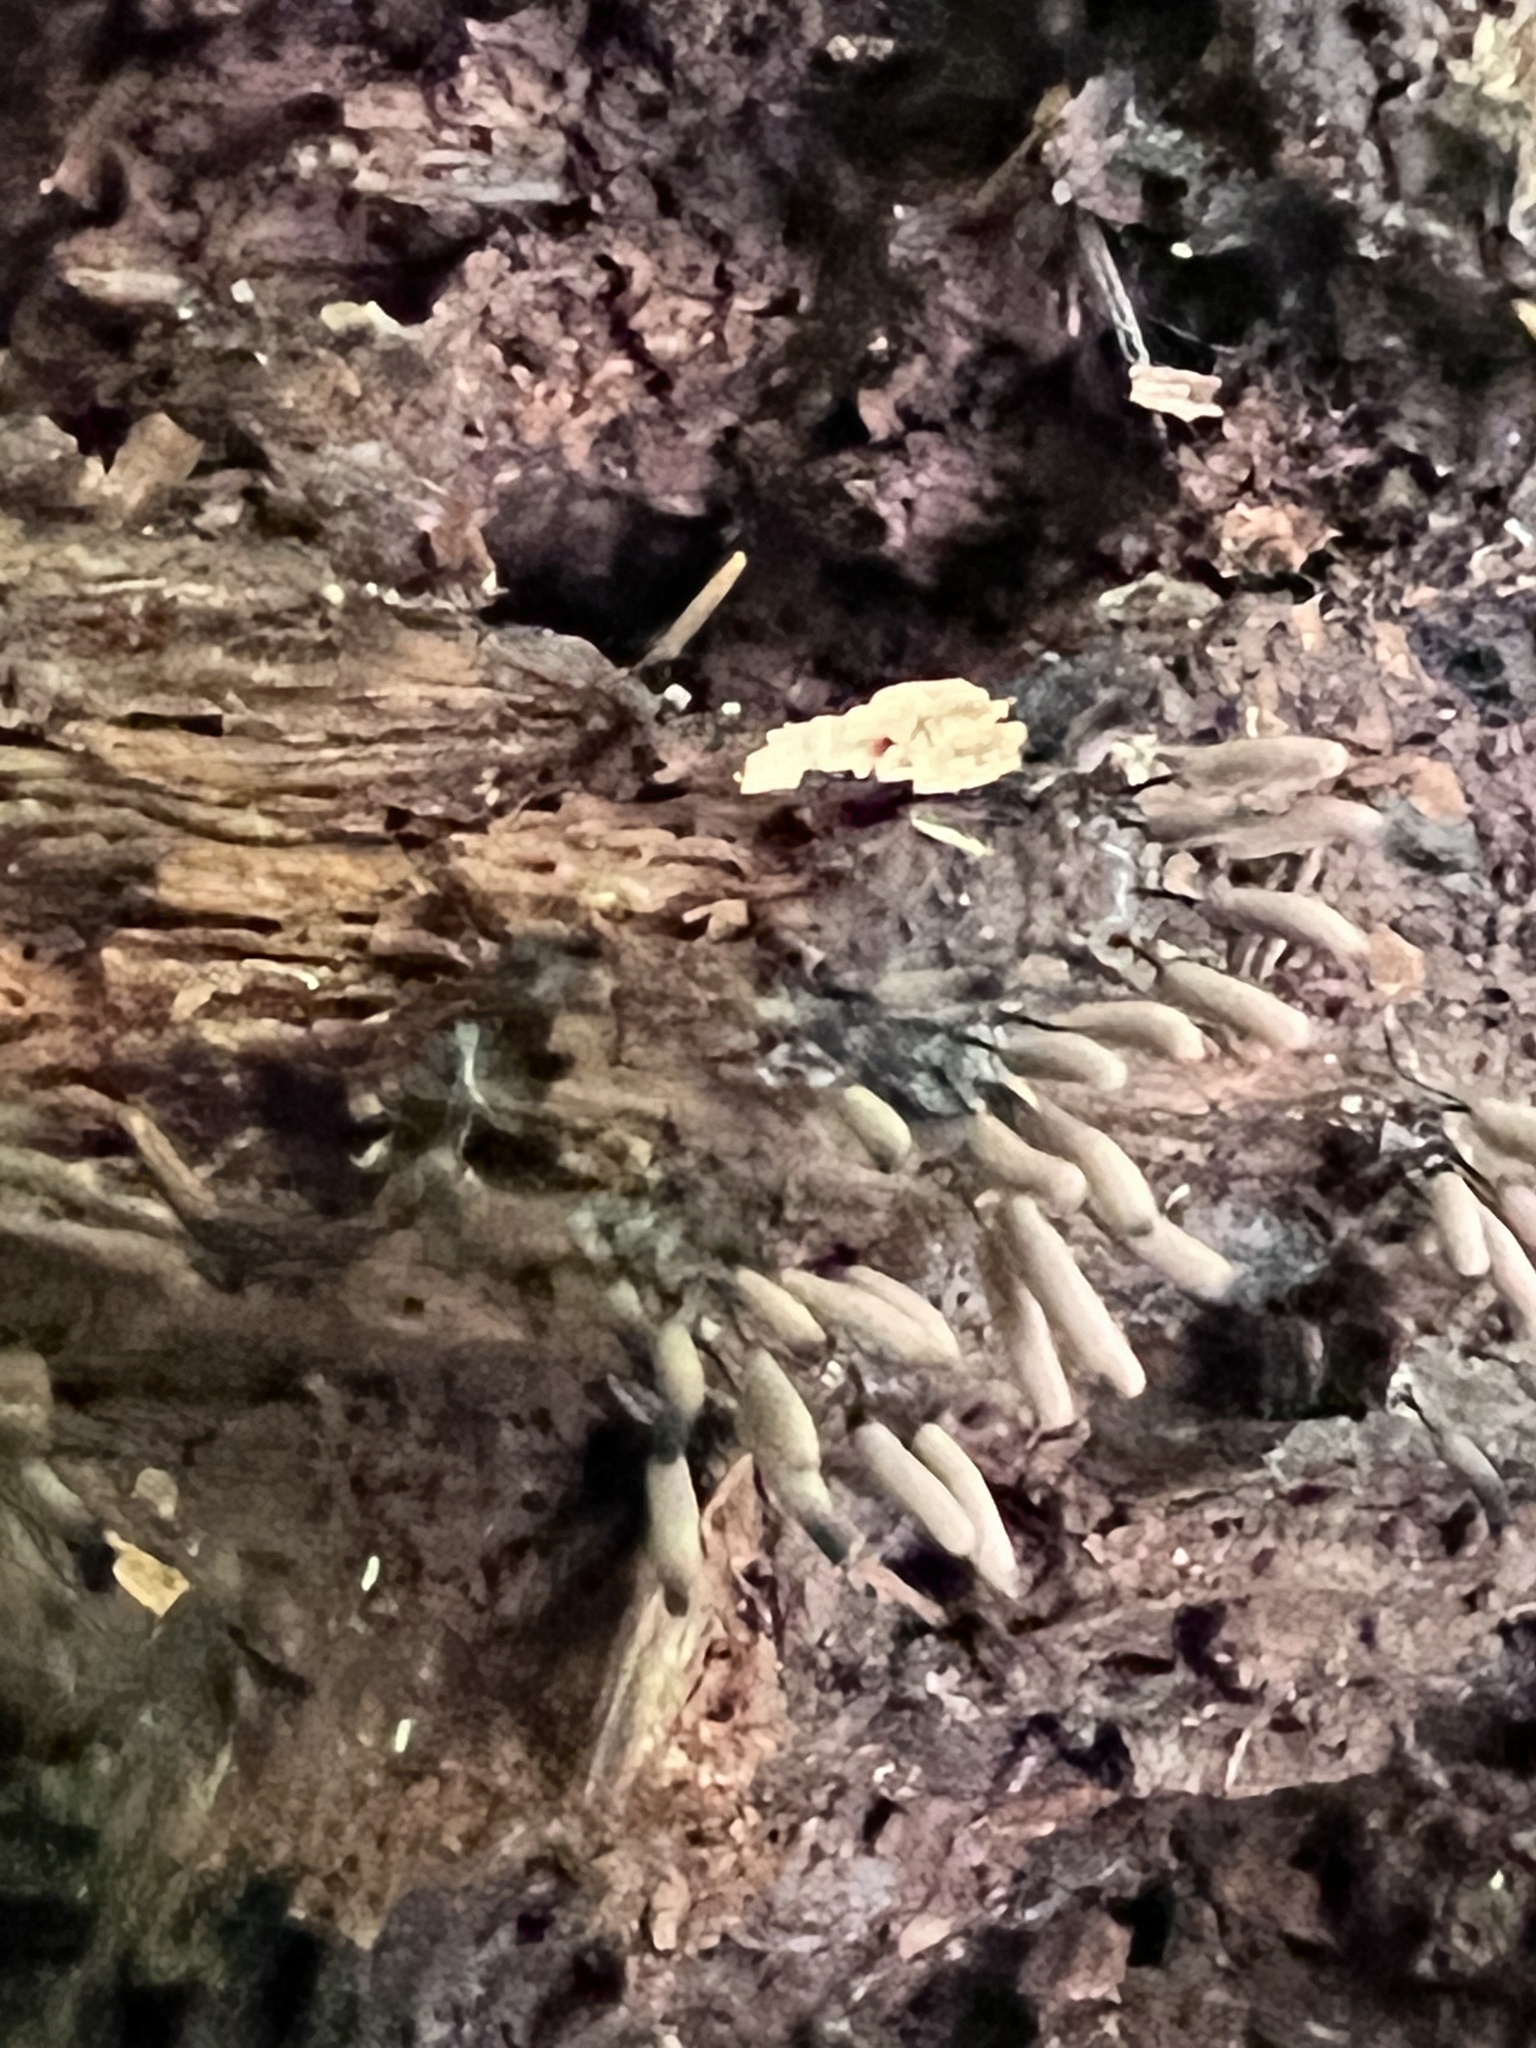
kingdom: Protozoa
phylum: Mycetozoa
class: Myxomycetes
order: Trichiales
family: Arcyriaceae
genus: Arcyria
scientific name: Arcyria cinerea
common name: White carnival candy slime mold
